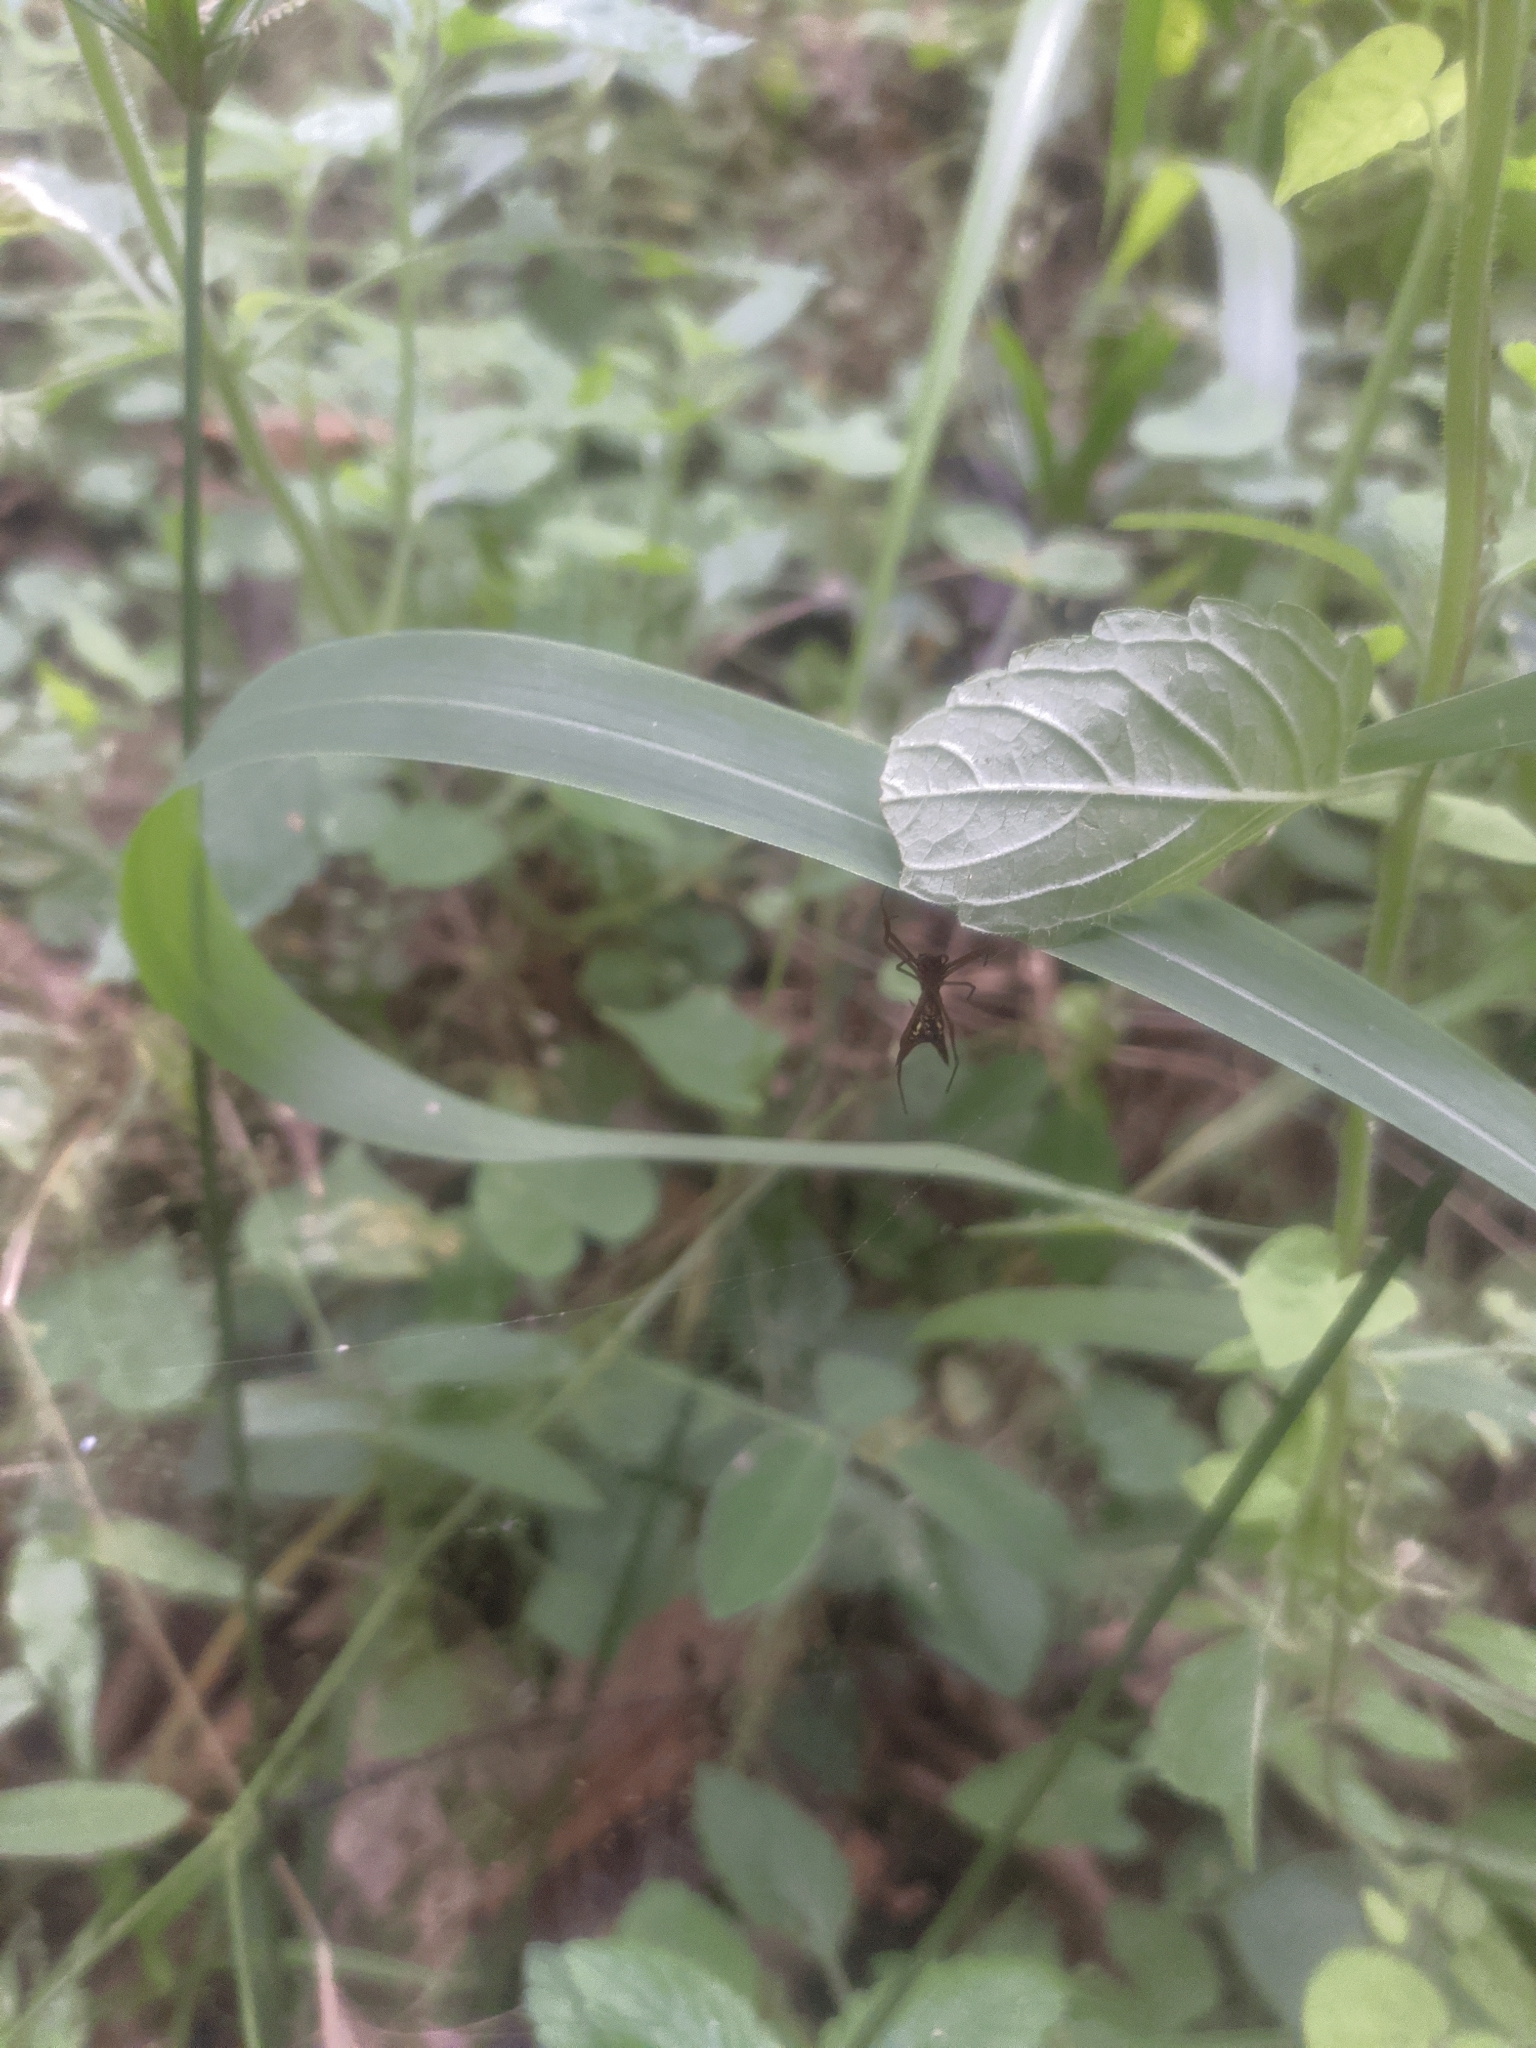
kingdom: Animalia
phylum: Arthropoda
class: Arachnida
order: Araneae
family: Araneidae
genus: Micrathena
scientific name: Micrathena sexspinosa
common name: Orb weavers
